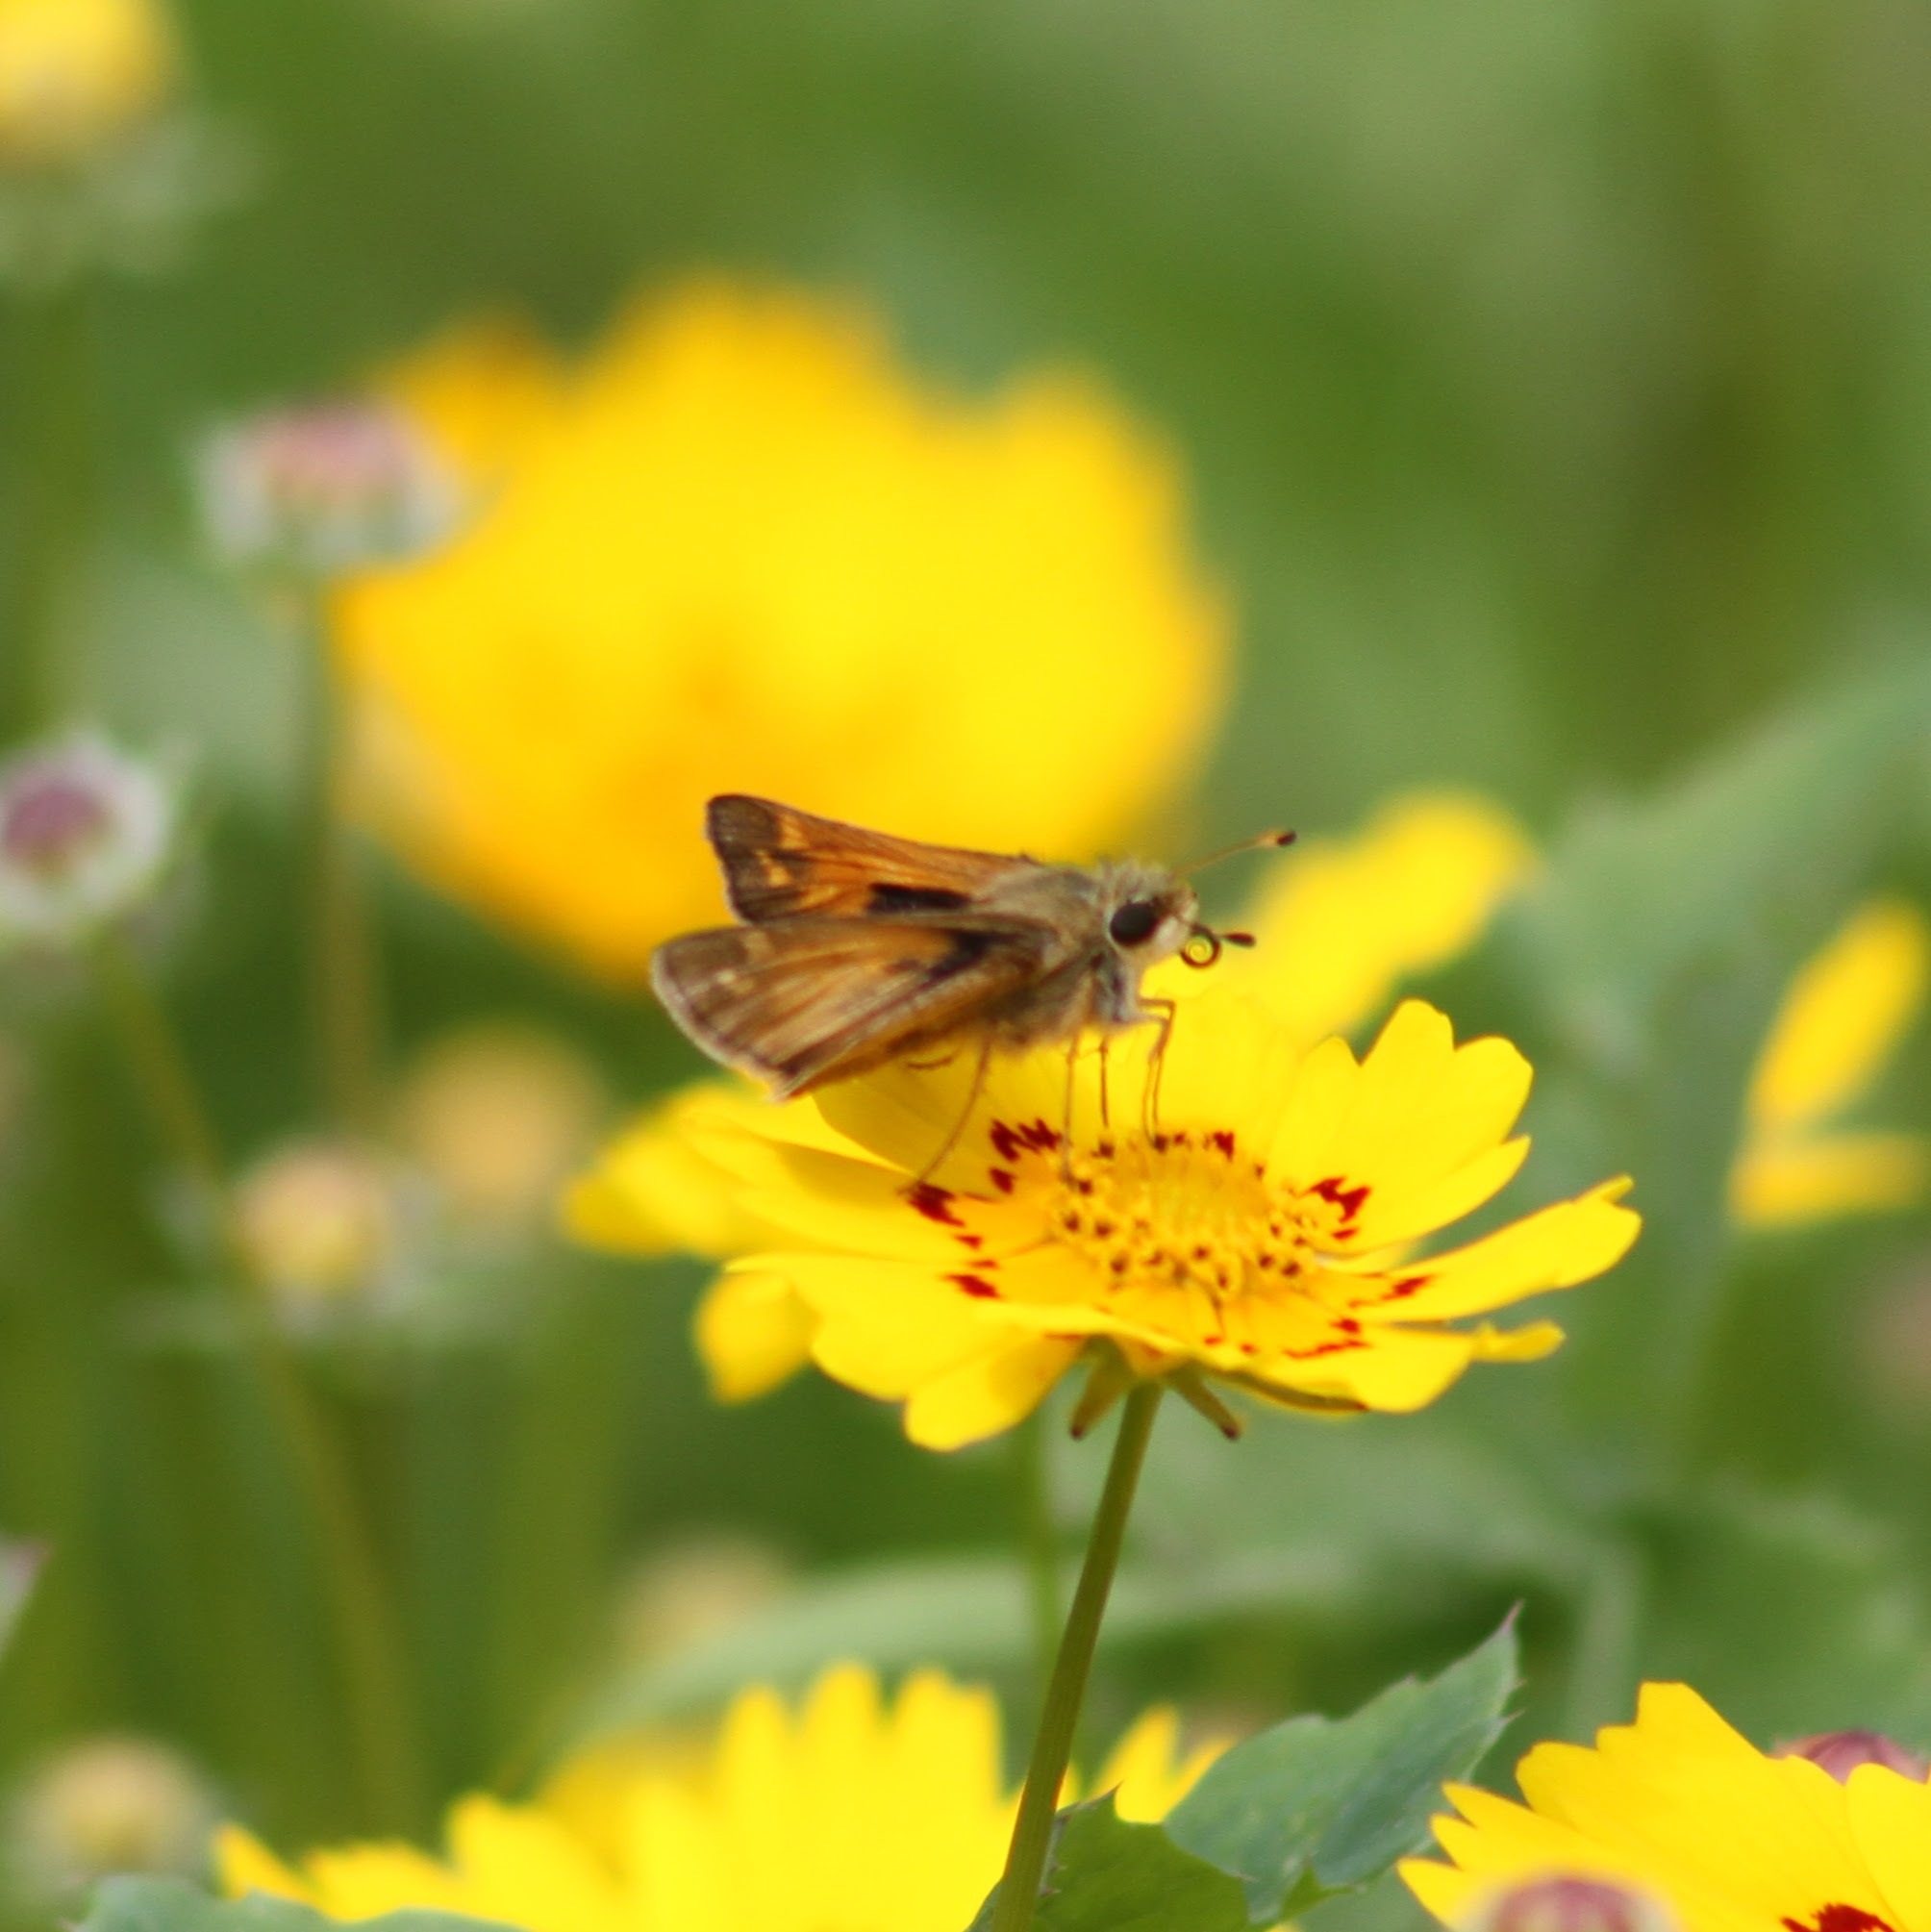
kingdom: Animalia
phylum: Arthropoda
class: Insecta
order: Lepidoptera
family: Hesperiidae
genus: Atalopedes
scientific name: Atalopedes
